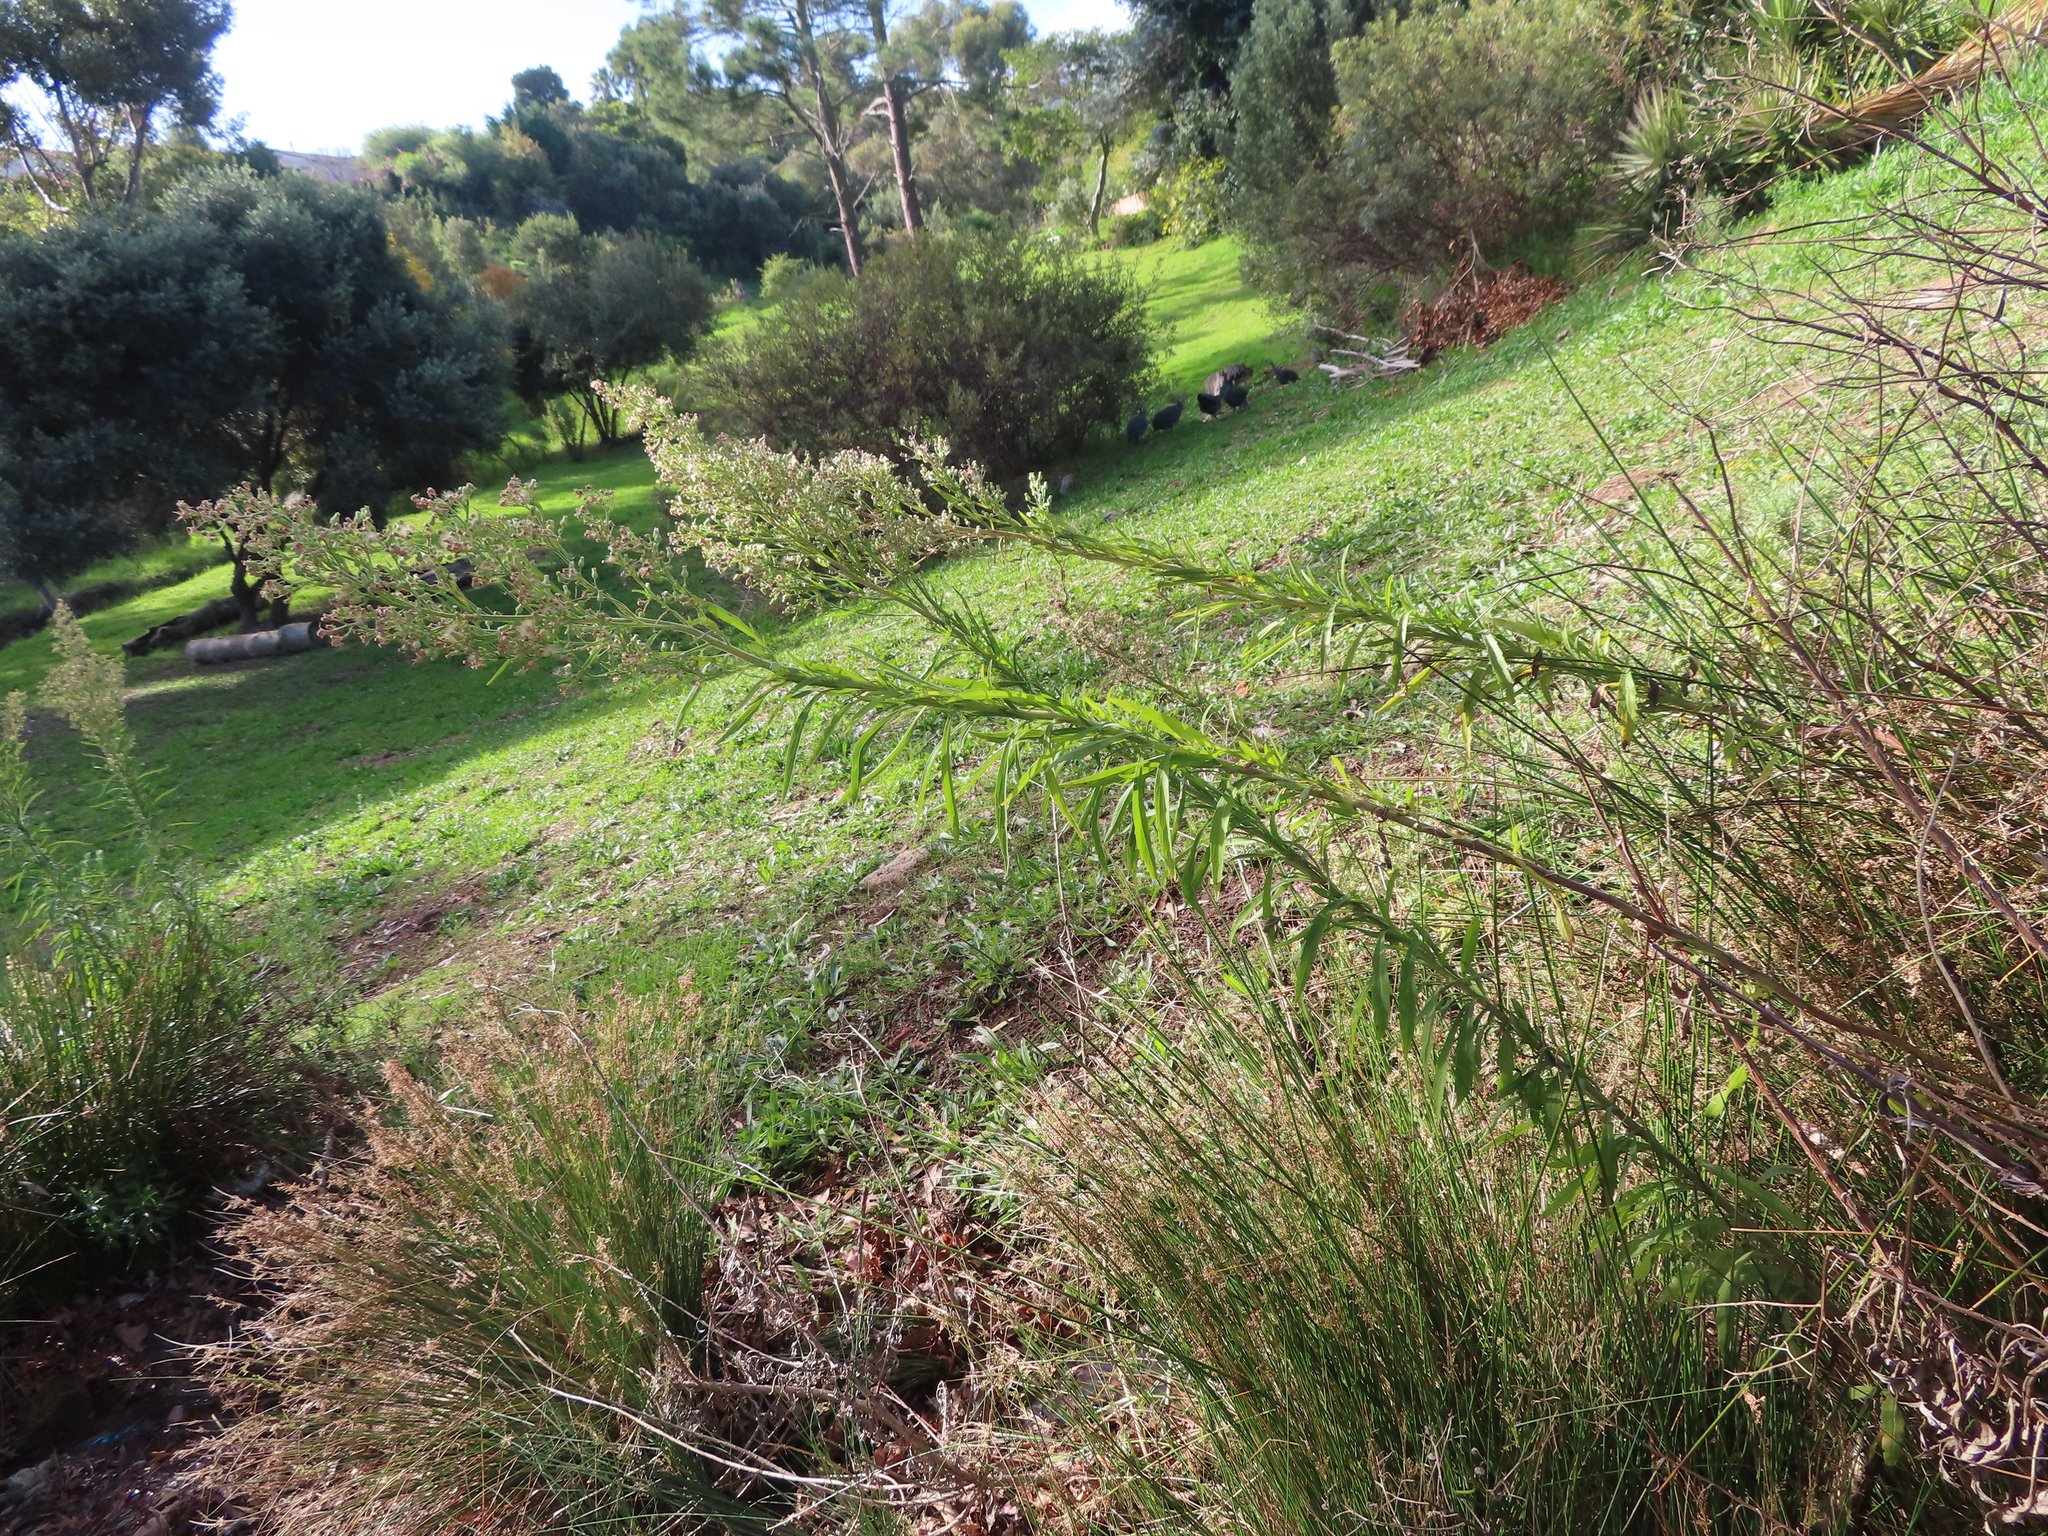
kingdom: Plantae
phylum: Tracheophyta
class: Magnoliopsida
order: Asterales
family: Asteraceae
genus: Erigeron
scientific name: Erigeron sumatrensis
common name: Daisy
